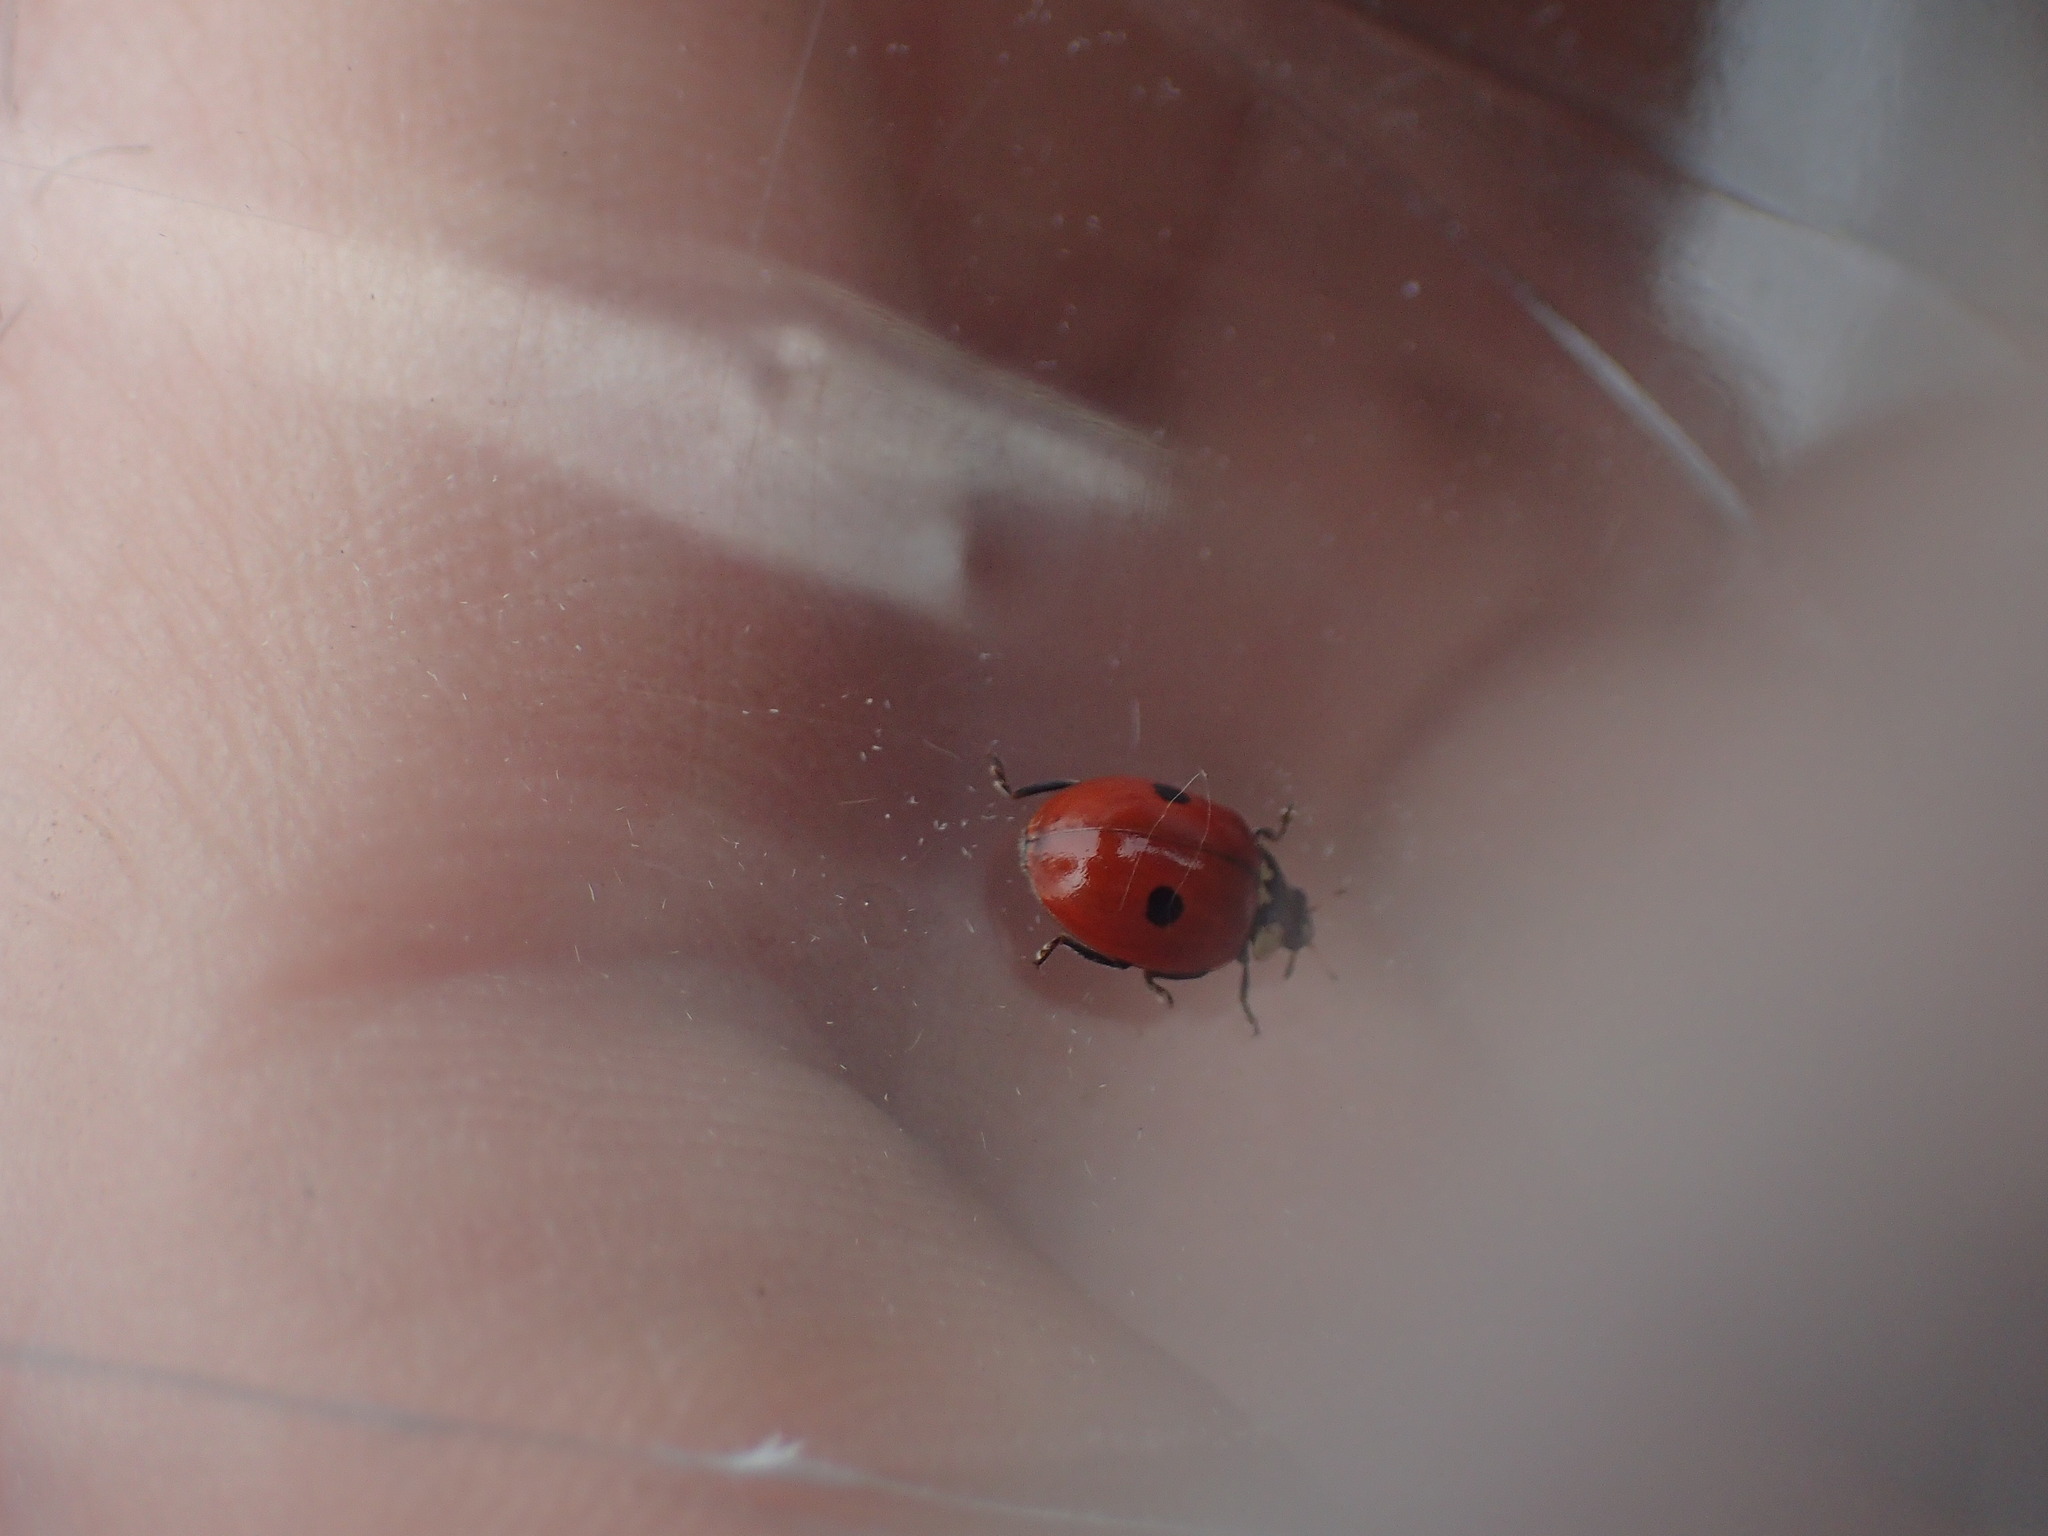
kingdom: Animalia
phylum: Arthropoda
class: Insecta
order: Coleoptera
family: Coccinellidae
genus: Adalia
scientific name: Adalia bipunctata
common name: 2-spot ladybird
